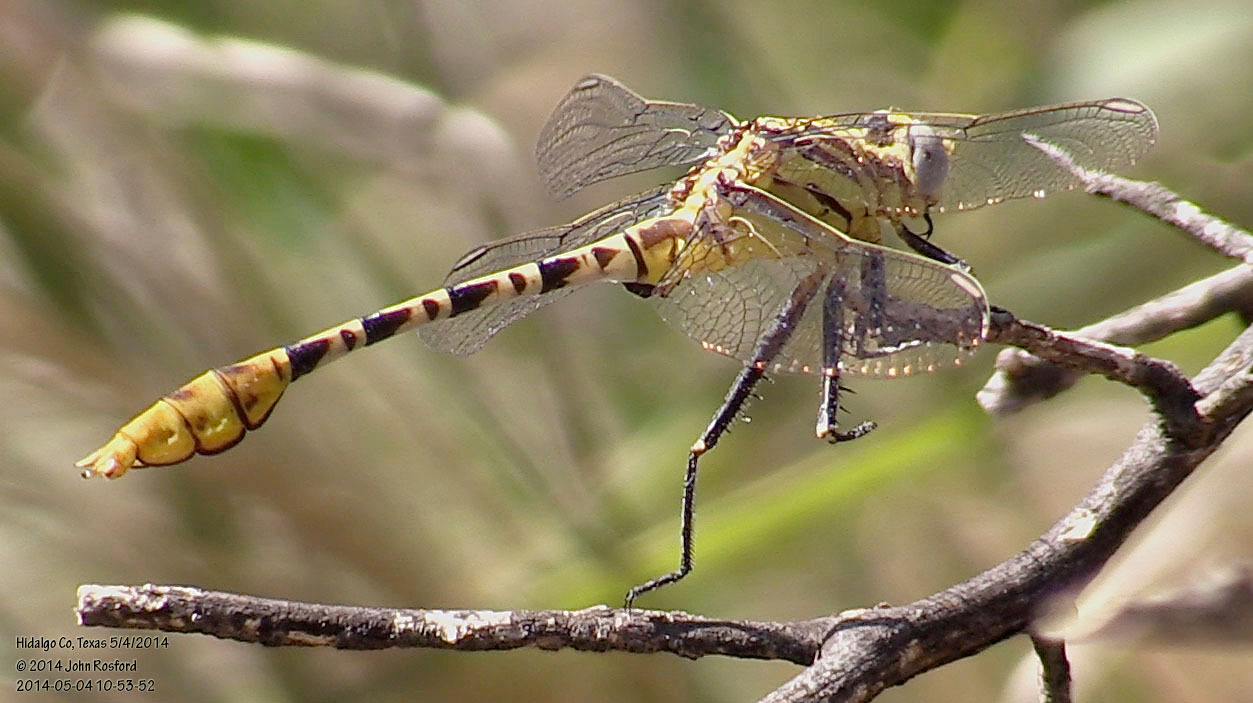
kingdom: Animalia
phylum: Arthropoda
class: Insecta
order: Odonata
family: Gomphidae
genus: Dromogomphus
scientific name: Dromogomphus spoliatus
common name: Flag-tailed spinyleg
